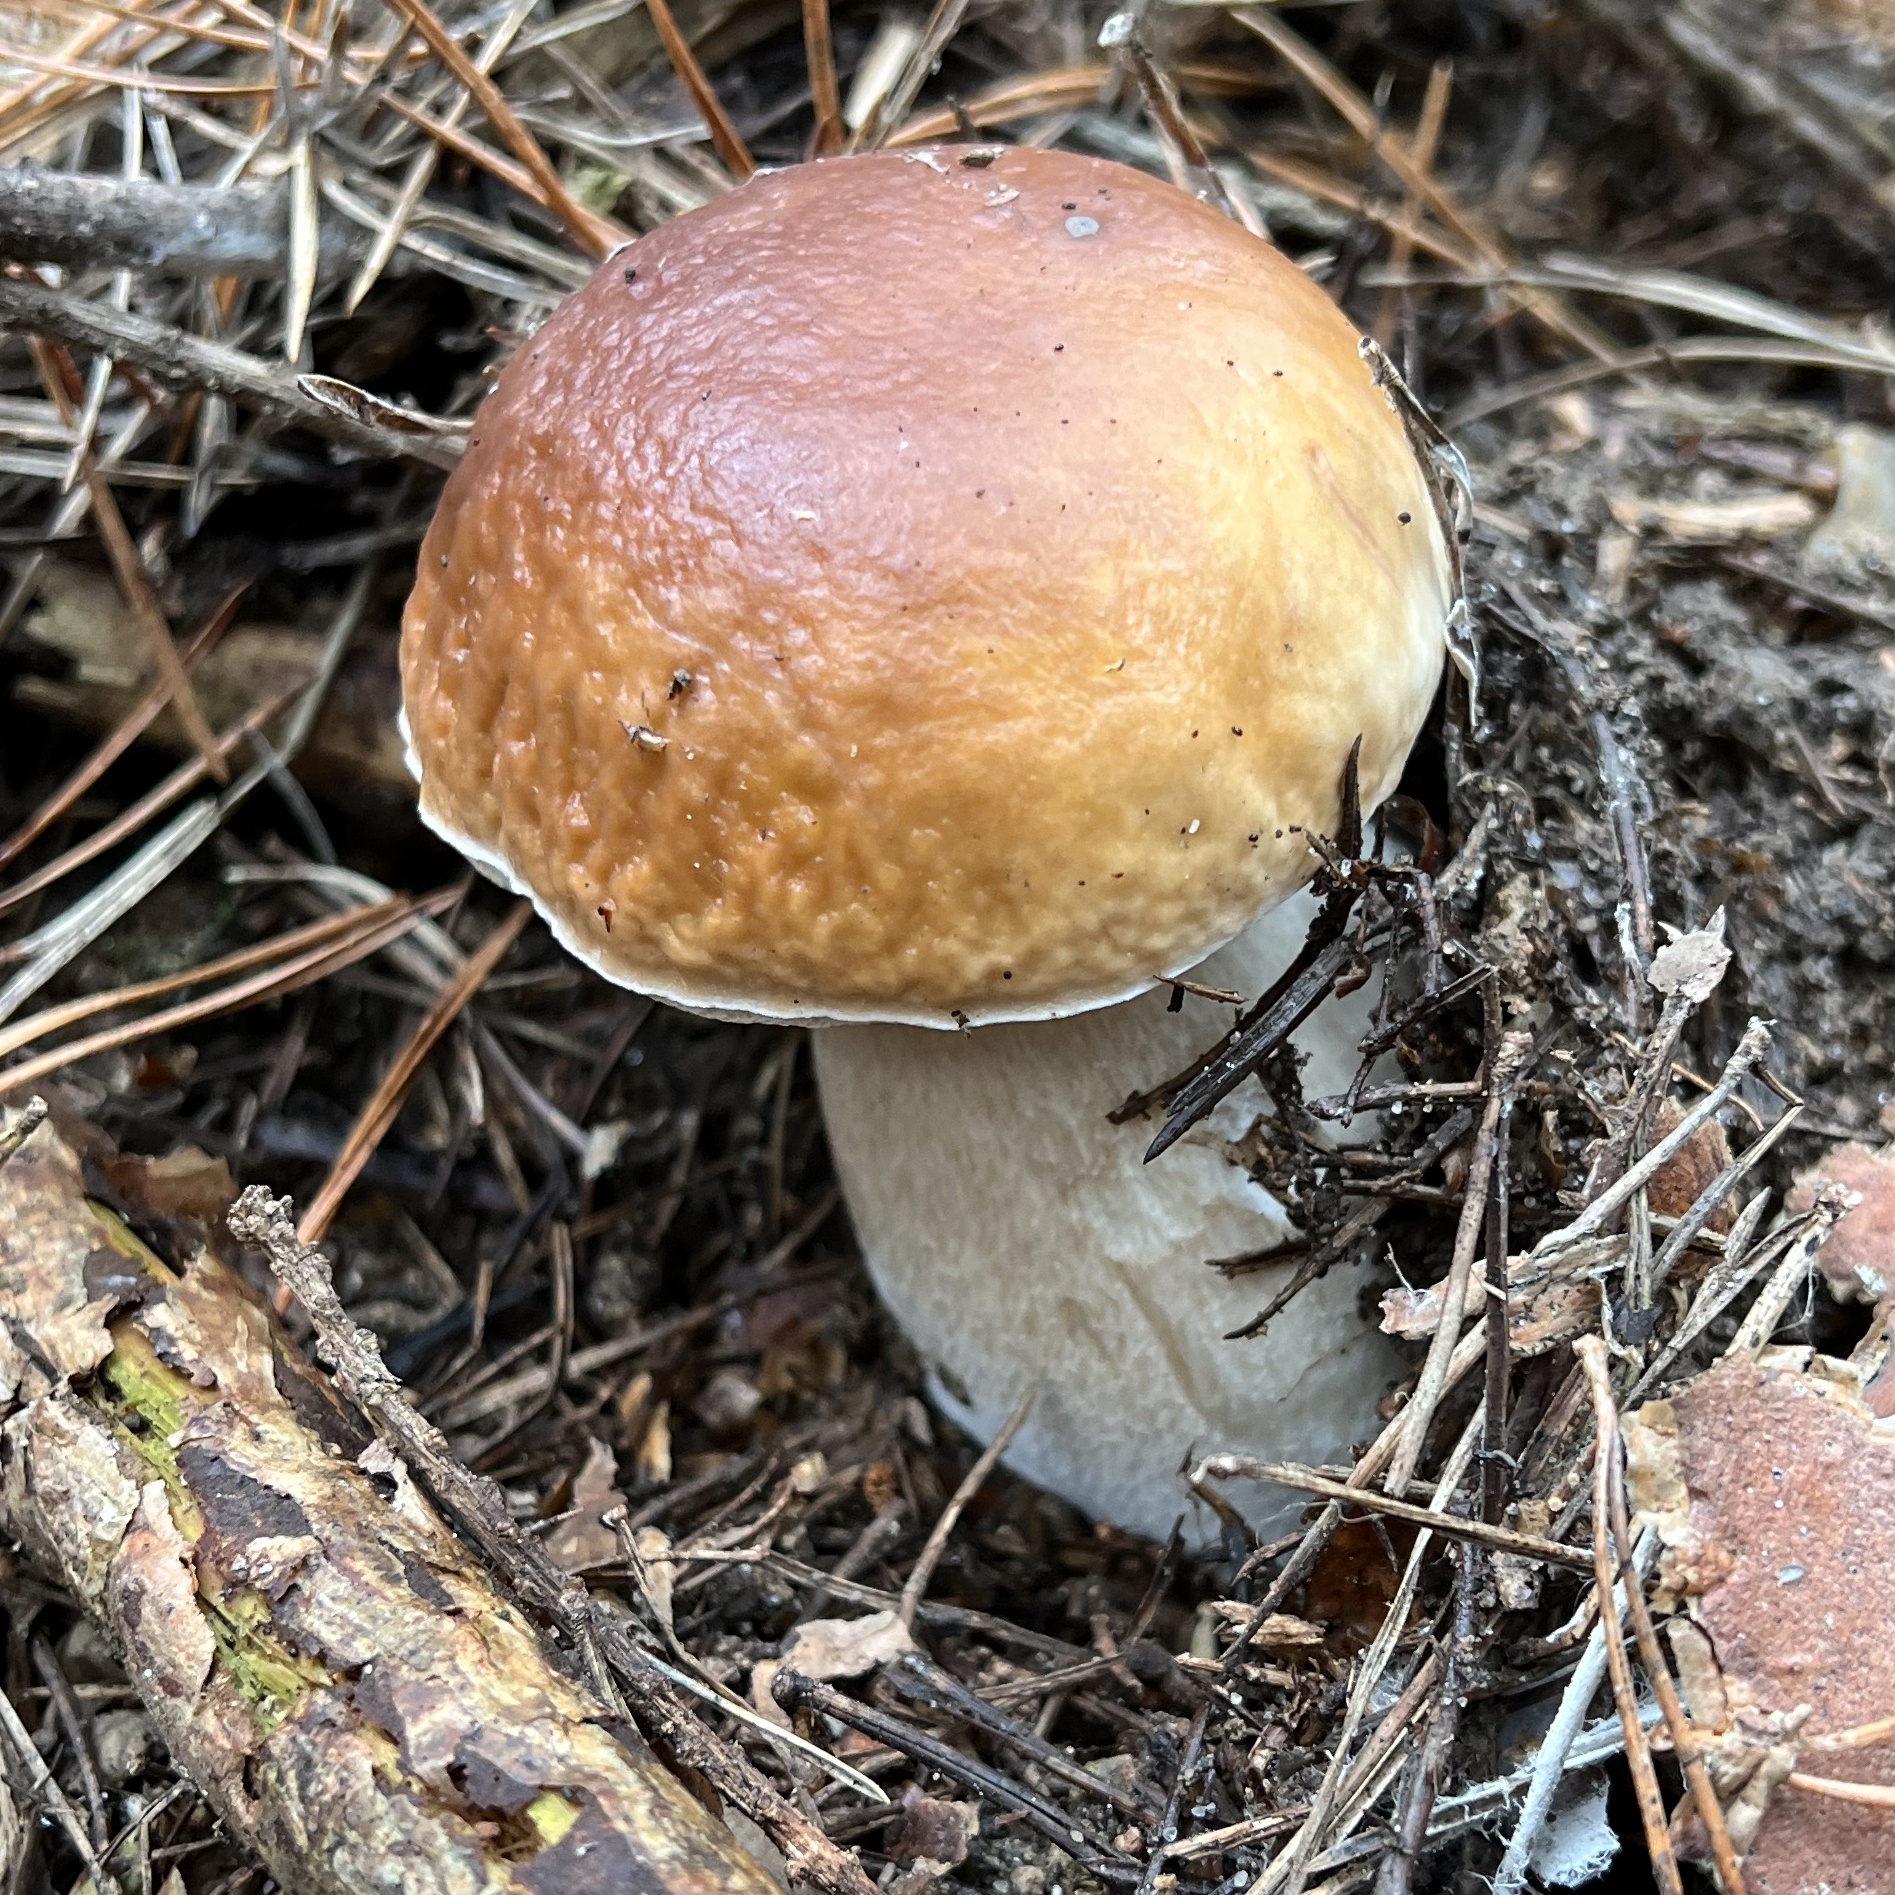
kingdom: Fungi
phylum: Basidiomycota
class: Agaricomycetes
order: Boletales
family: Boletaceae
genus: Boletus
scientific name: Boletus edulis
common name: Cep
